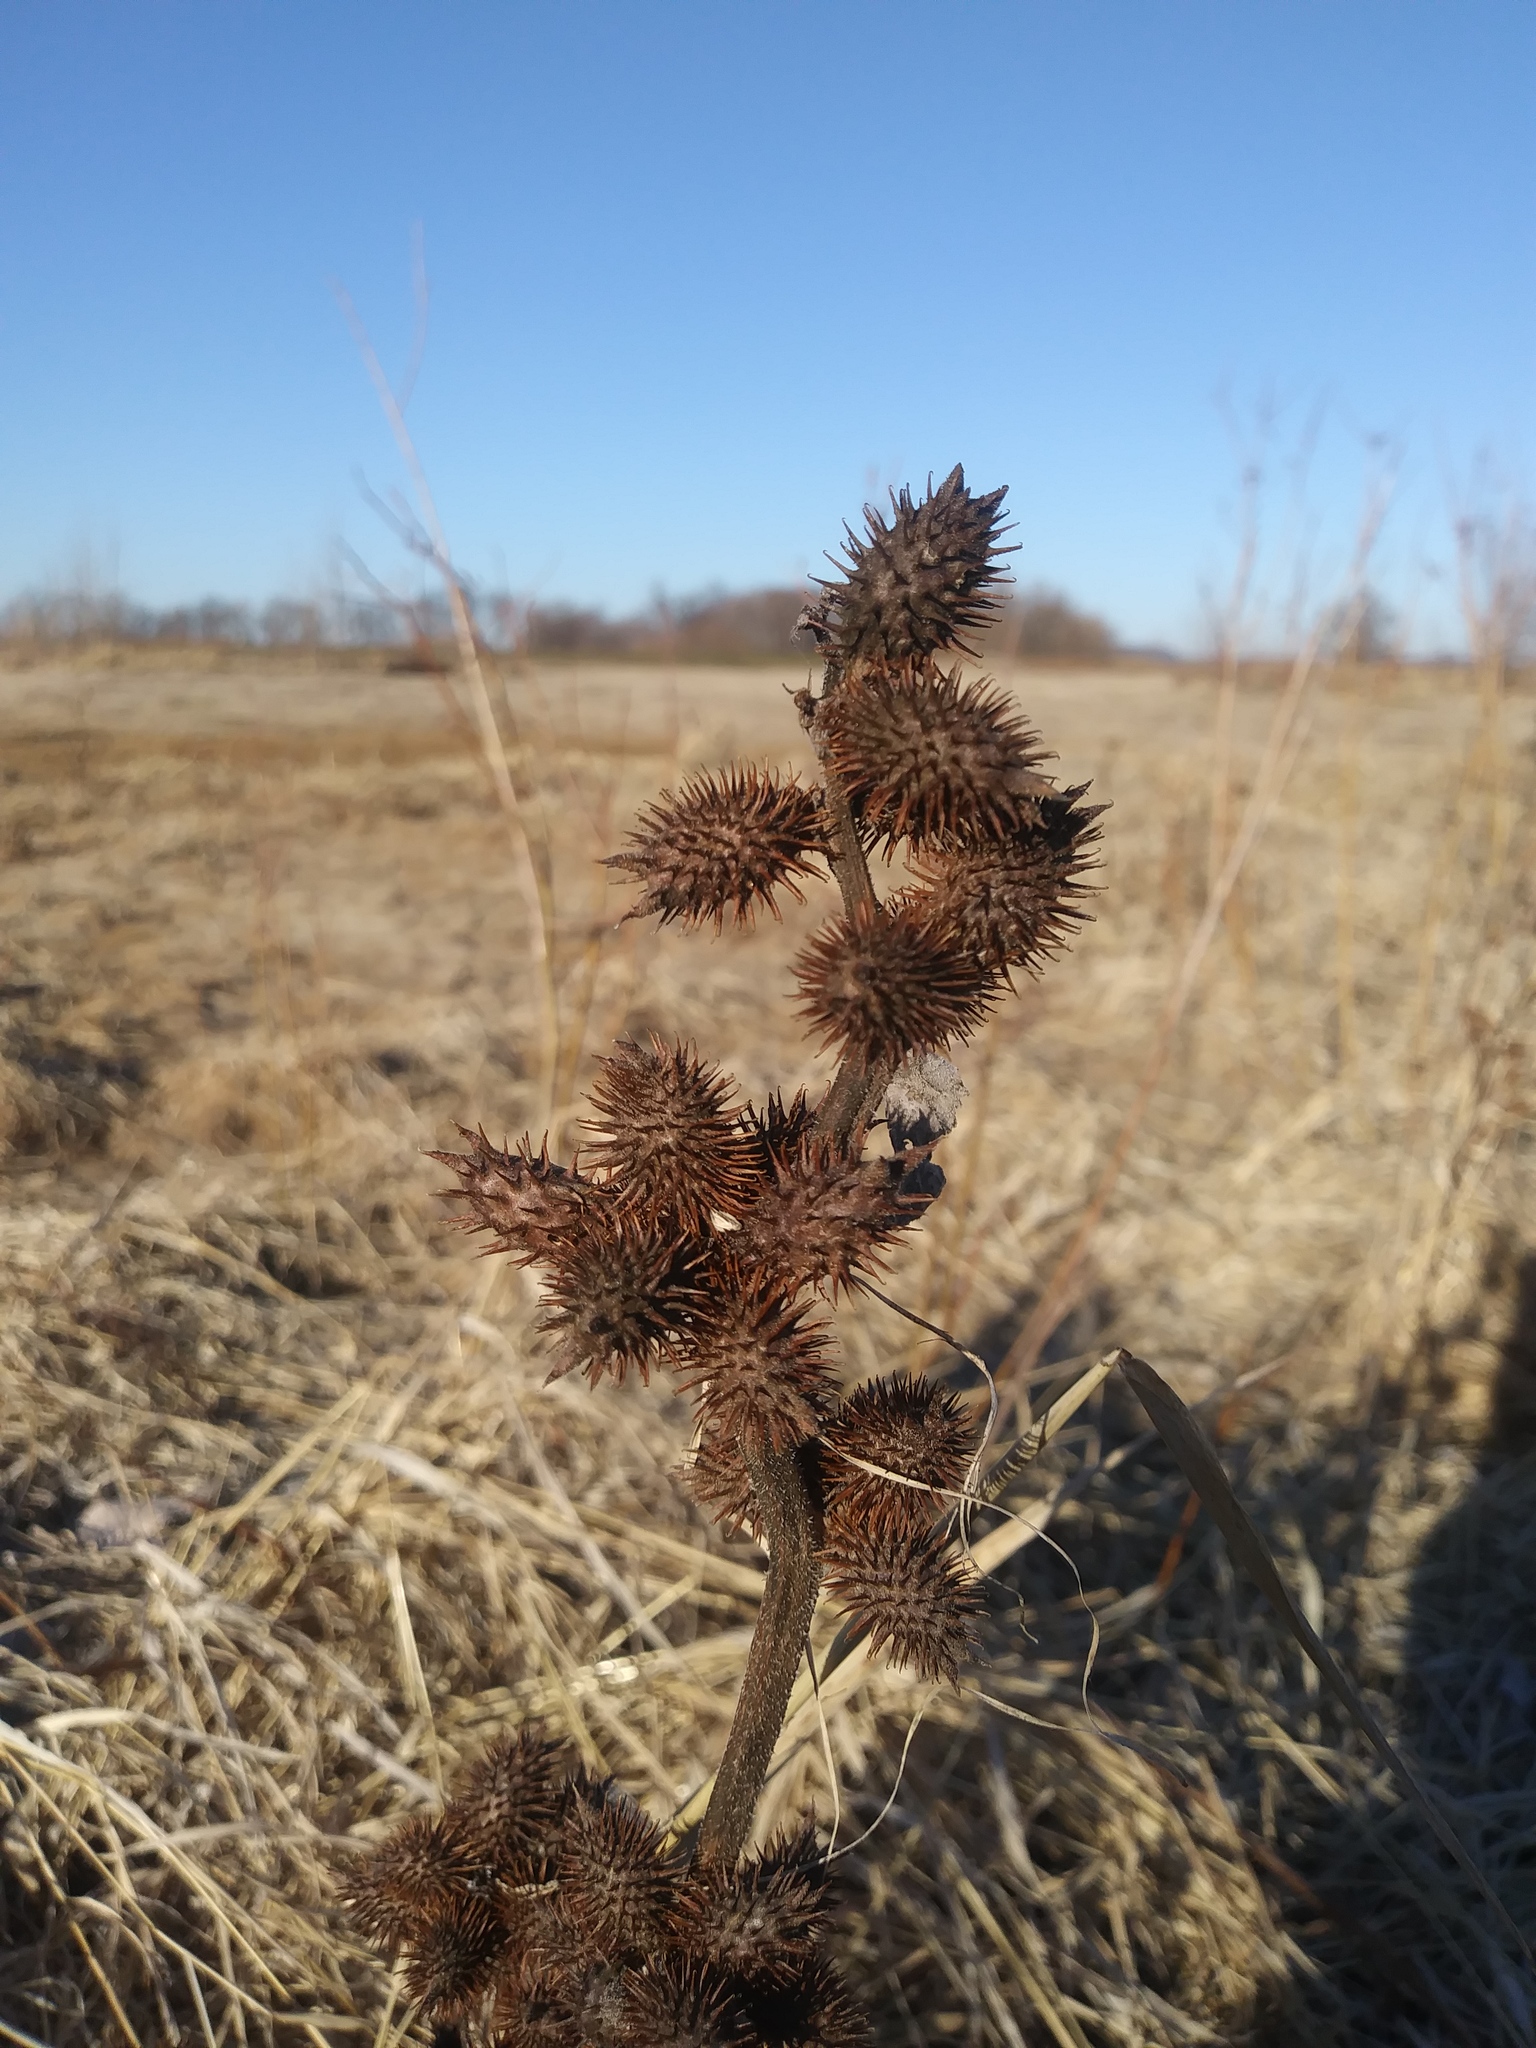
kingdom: Plantae
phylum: Tracheophyta
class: Magnoliopsida
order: Asterales
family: Asteraceae
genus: Xanthium
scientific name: Xanthium strumarium
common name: Rough cocklebur
